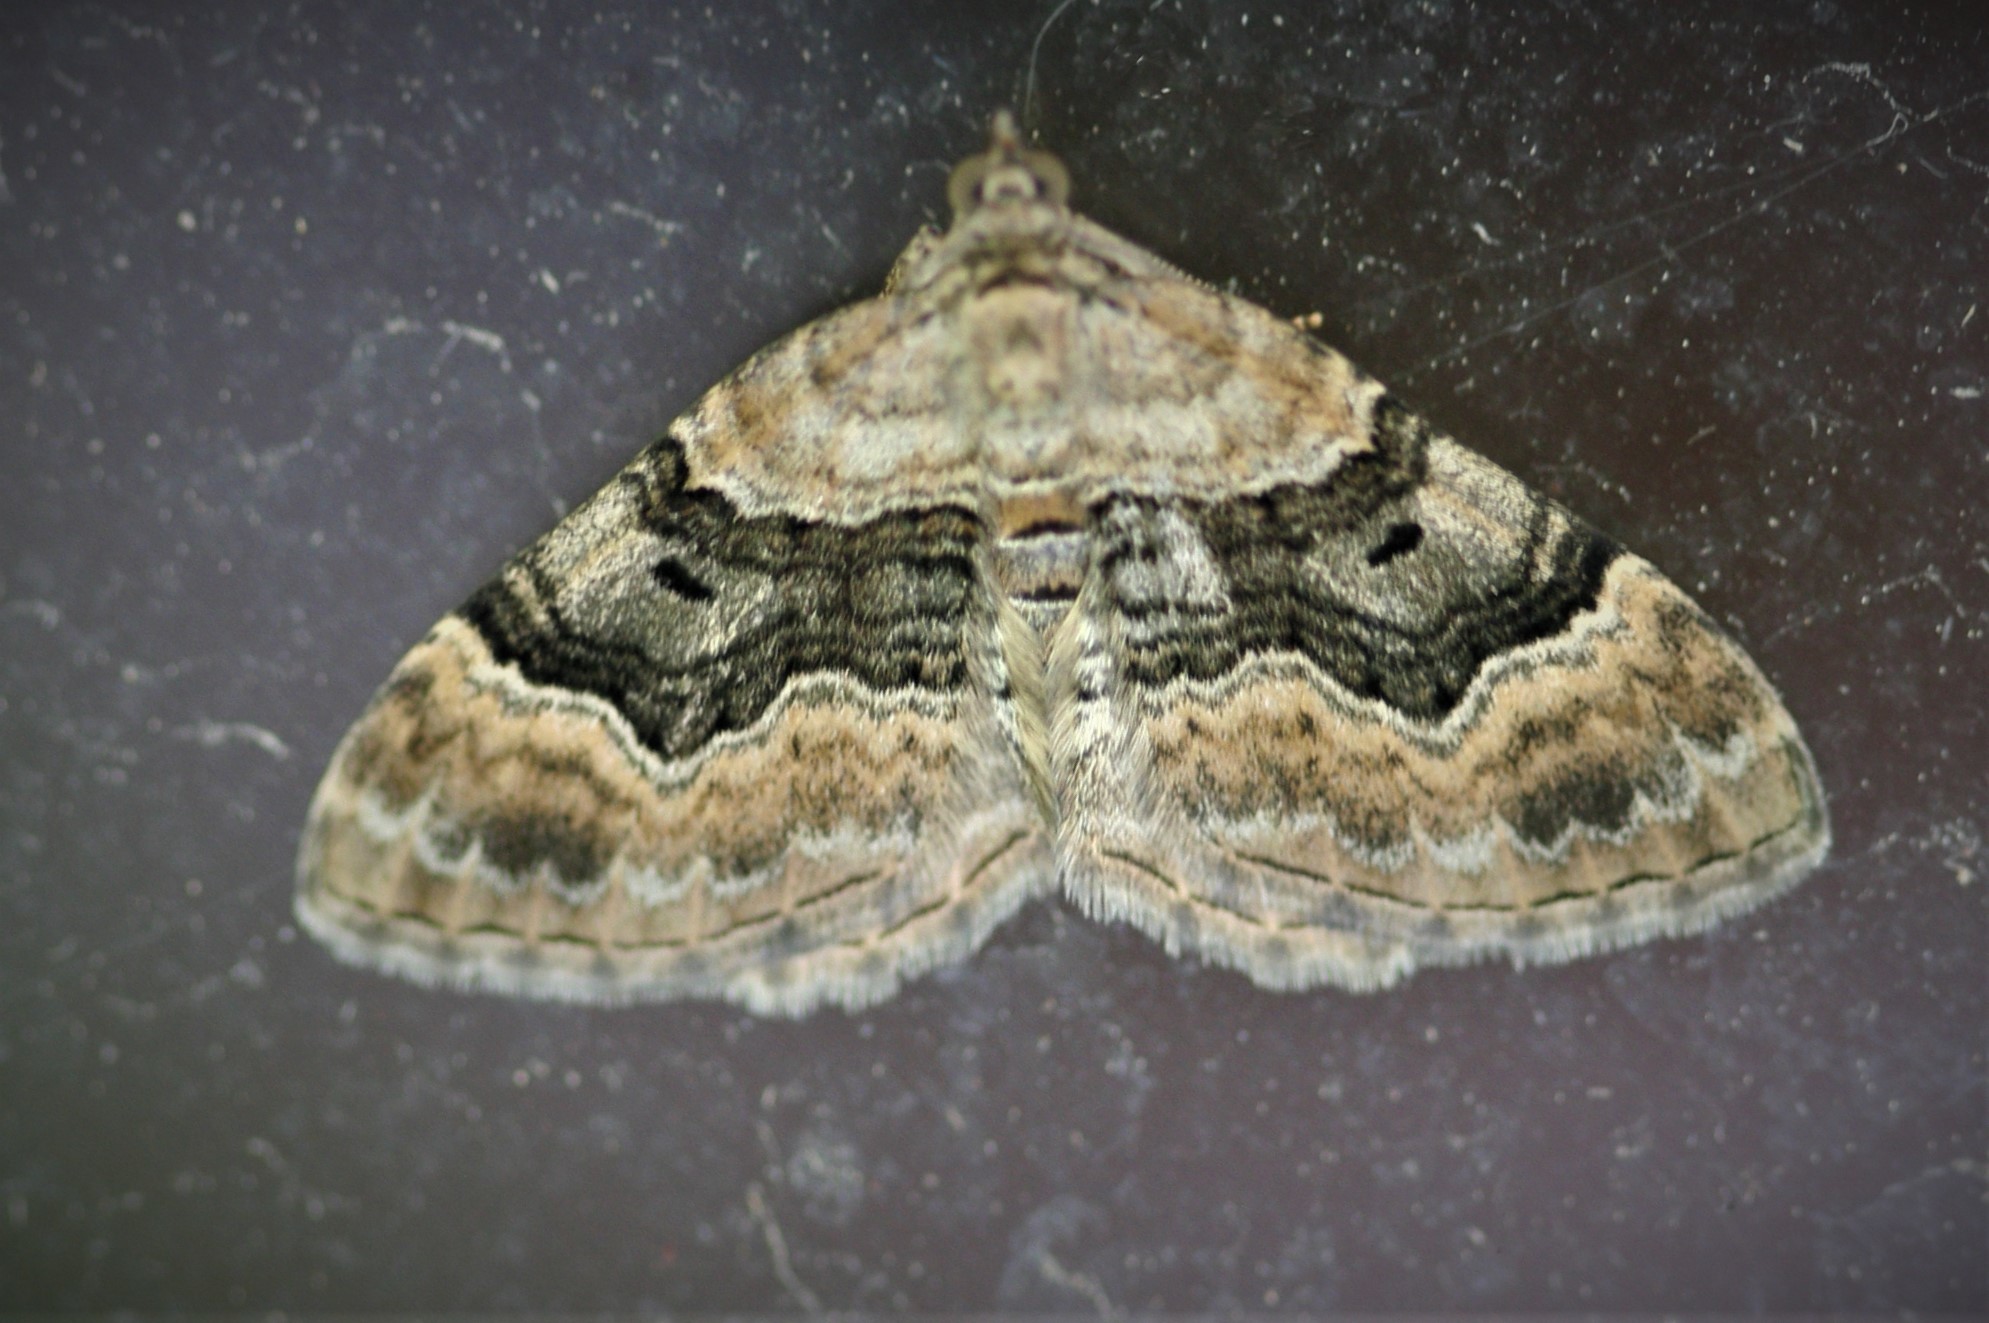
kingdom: Animalia
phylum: Arthropoda
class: Insecta
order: Lepidoptera
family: Geometridae
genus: Xanthorhoe
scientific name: Xanthorhoe quadrifasiata
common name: Large twin-spot carpet
